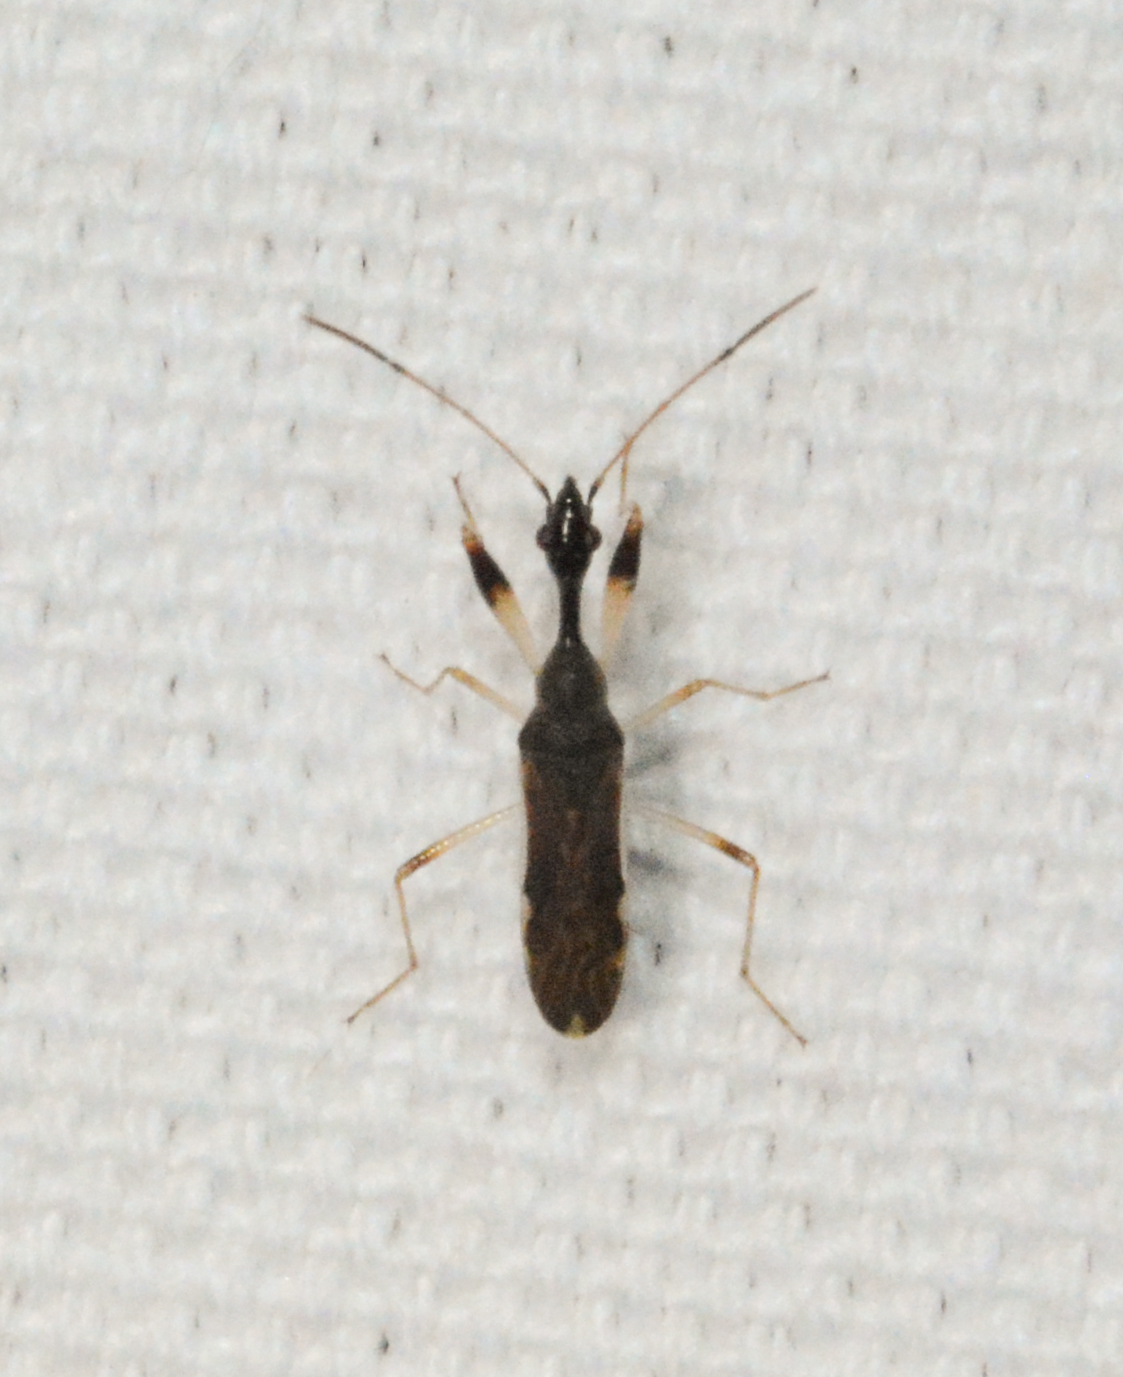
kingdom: Animalia
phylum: Arthropoda
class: Insecta
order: Hemiptera
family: Rhyparochromidae
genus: Myodocha
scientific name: Myodocha serripes
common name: Long-necked seed bug
